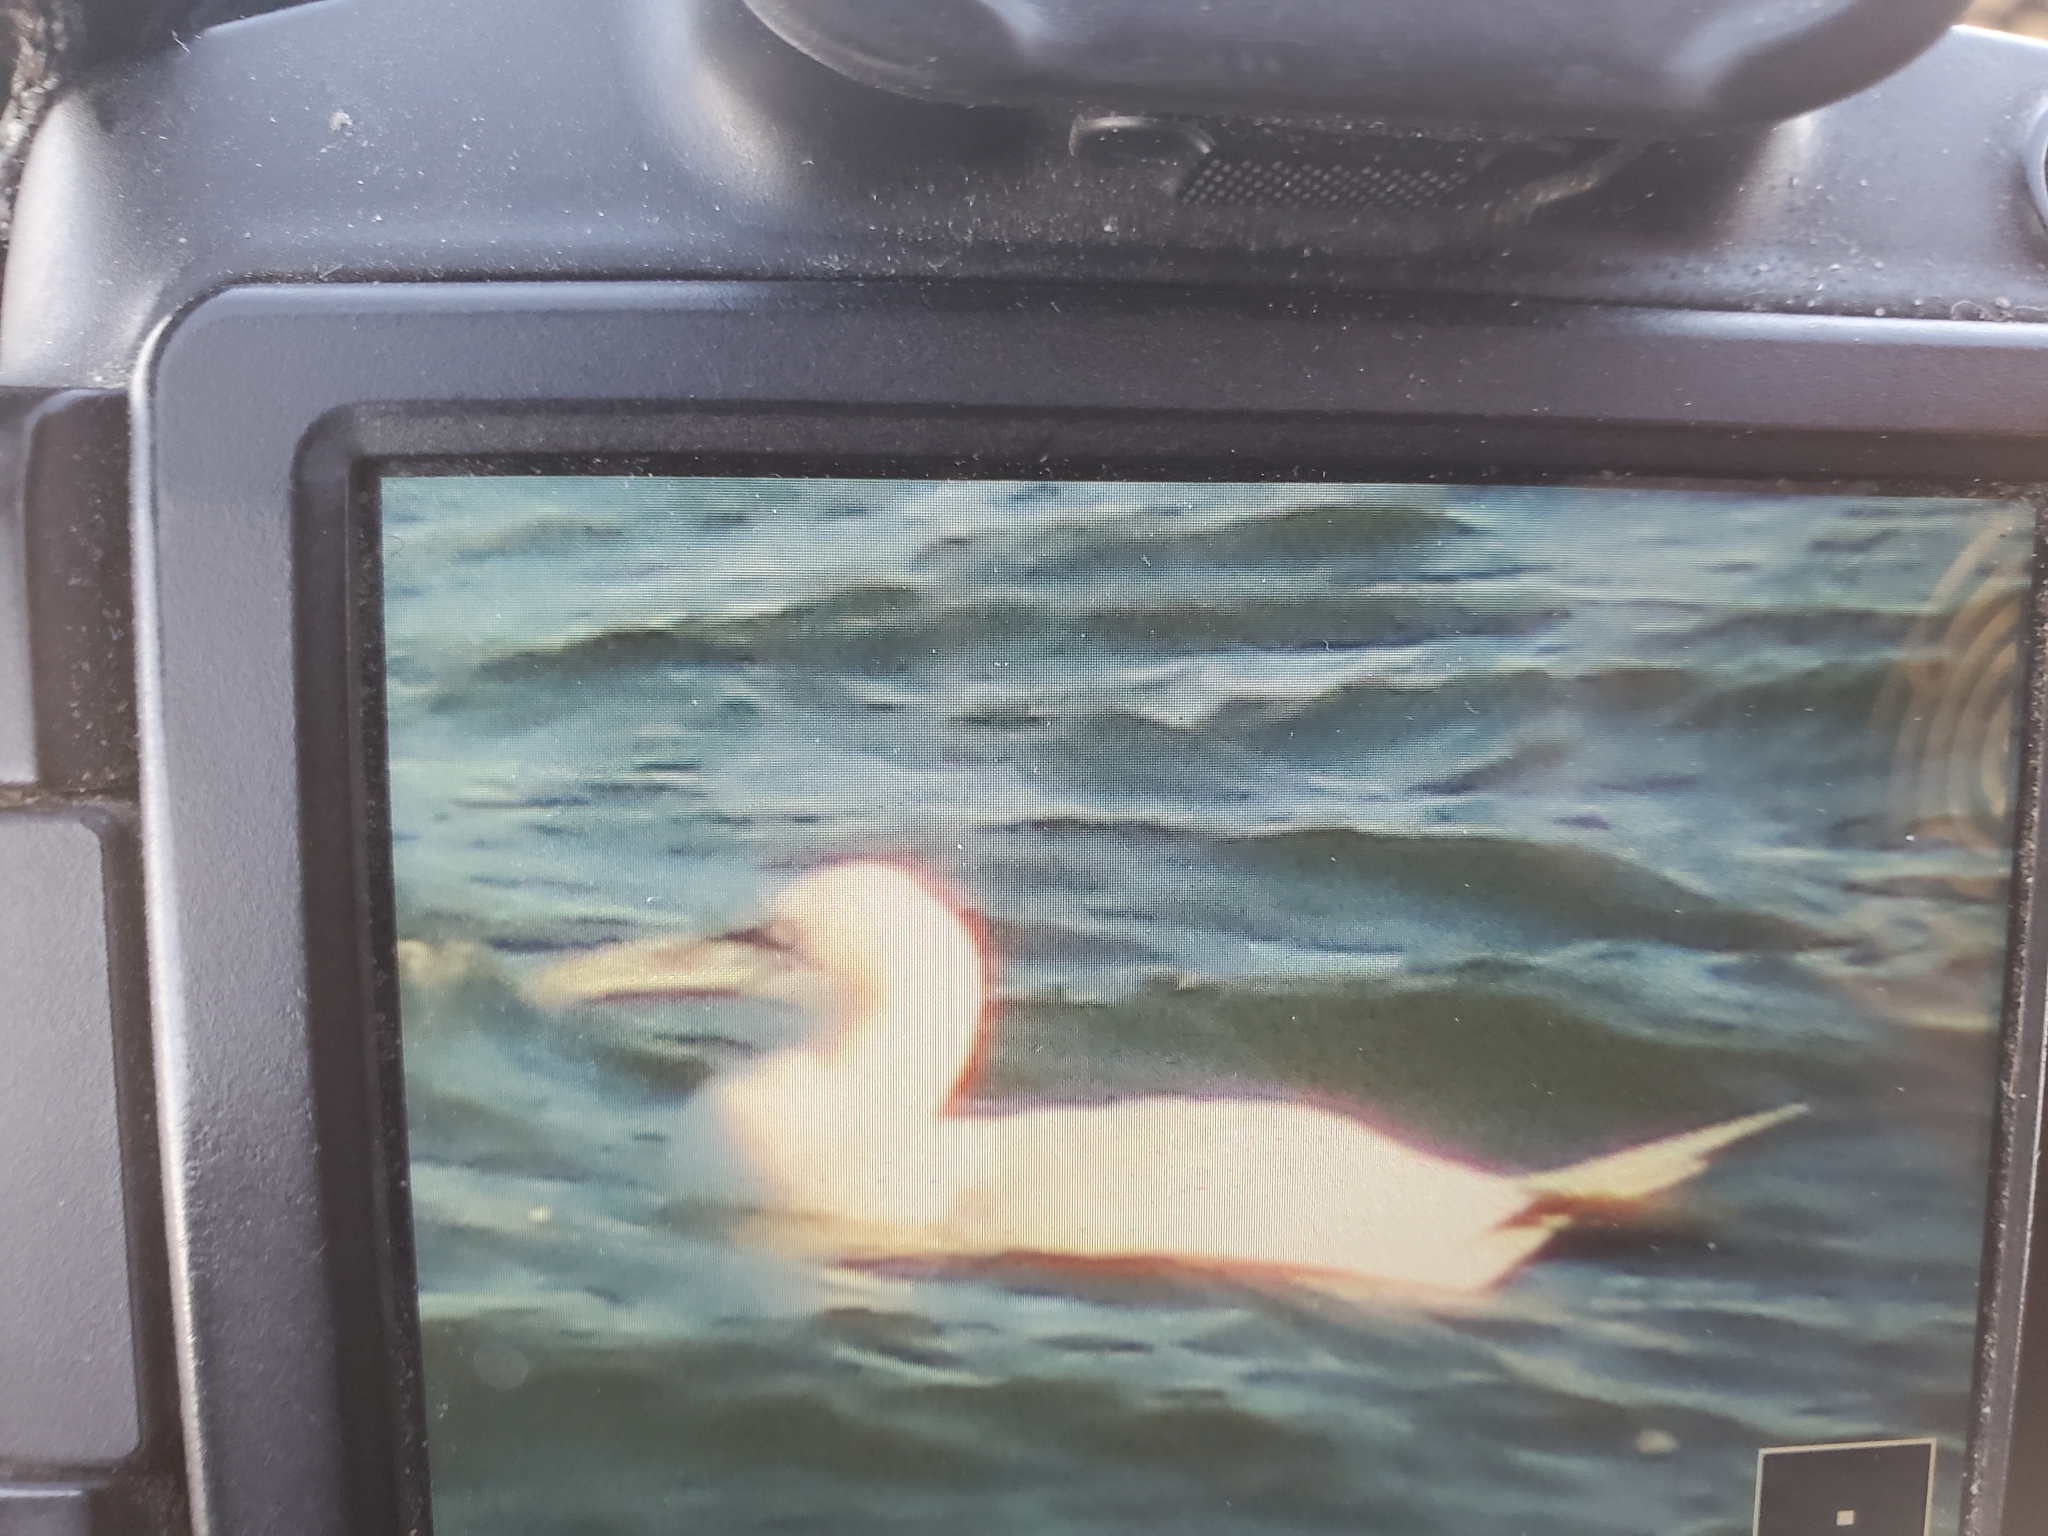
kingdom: Animalia
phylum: Chordata
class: Aves
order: Suliformes
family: Sulidae
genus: Morus
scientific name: Morus bassanus
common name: Northern gannet
